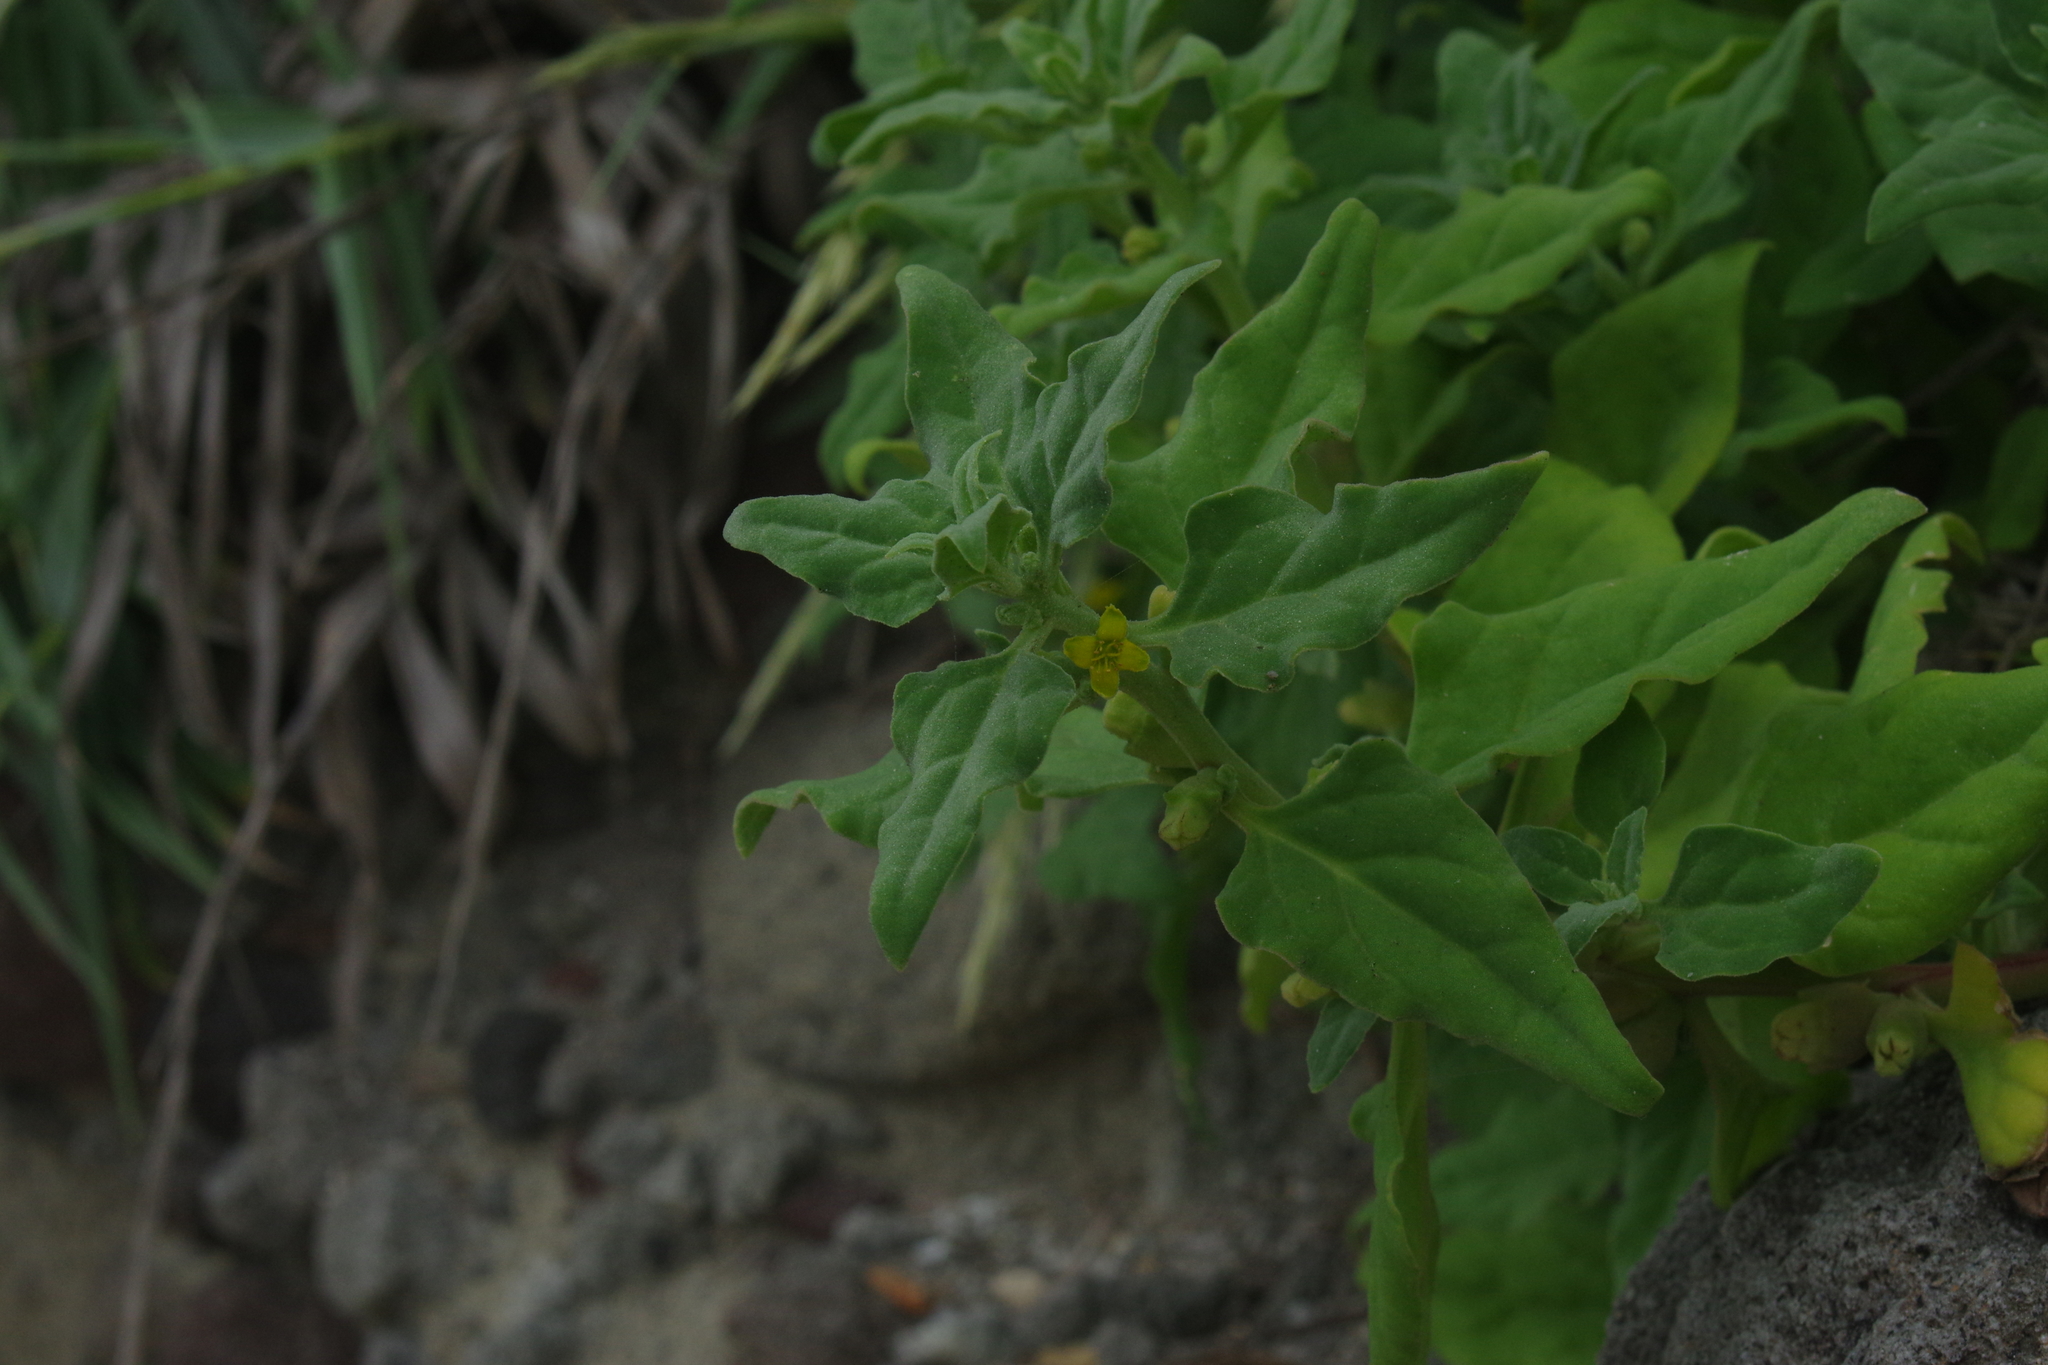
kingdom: Plantae
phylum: Tracheophyta
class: Magnoliopsida
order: Caryophyllales
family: Aizoaceae
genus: Tetragonia
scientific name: Tetragonia tetragonoides
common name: New zealand-spinach
